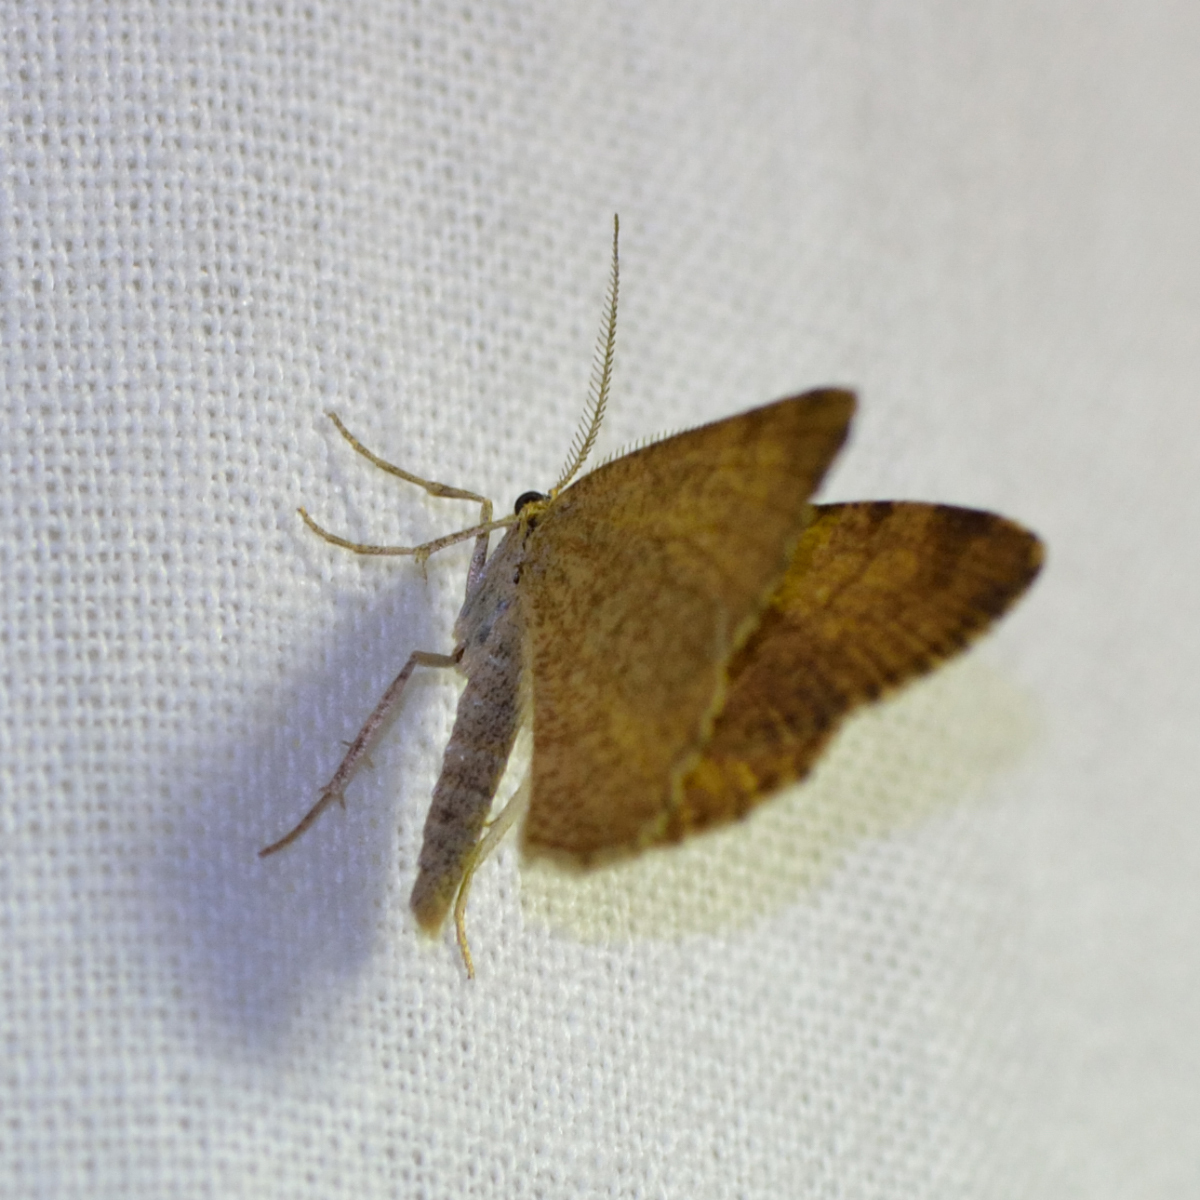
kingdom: Animalia
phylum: Arthropoda
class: Insecta
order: Lepidoptera
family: Geometridae
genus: Macaria
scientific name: Macaria brunneata
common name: Rannoch looper
